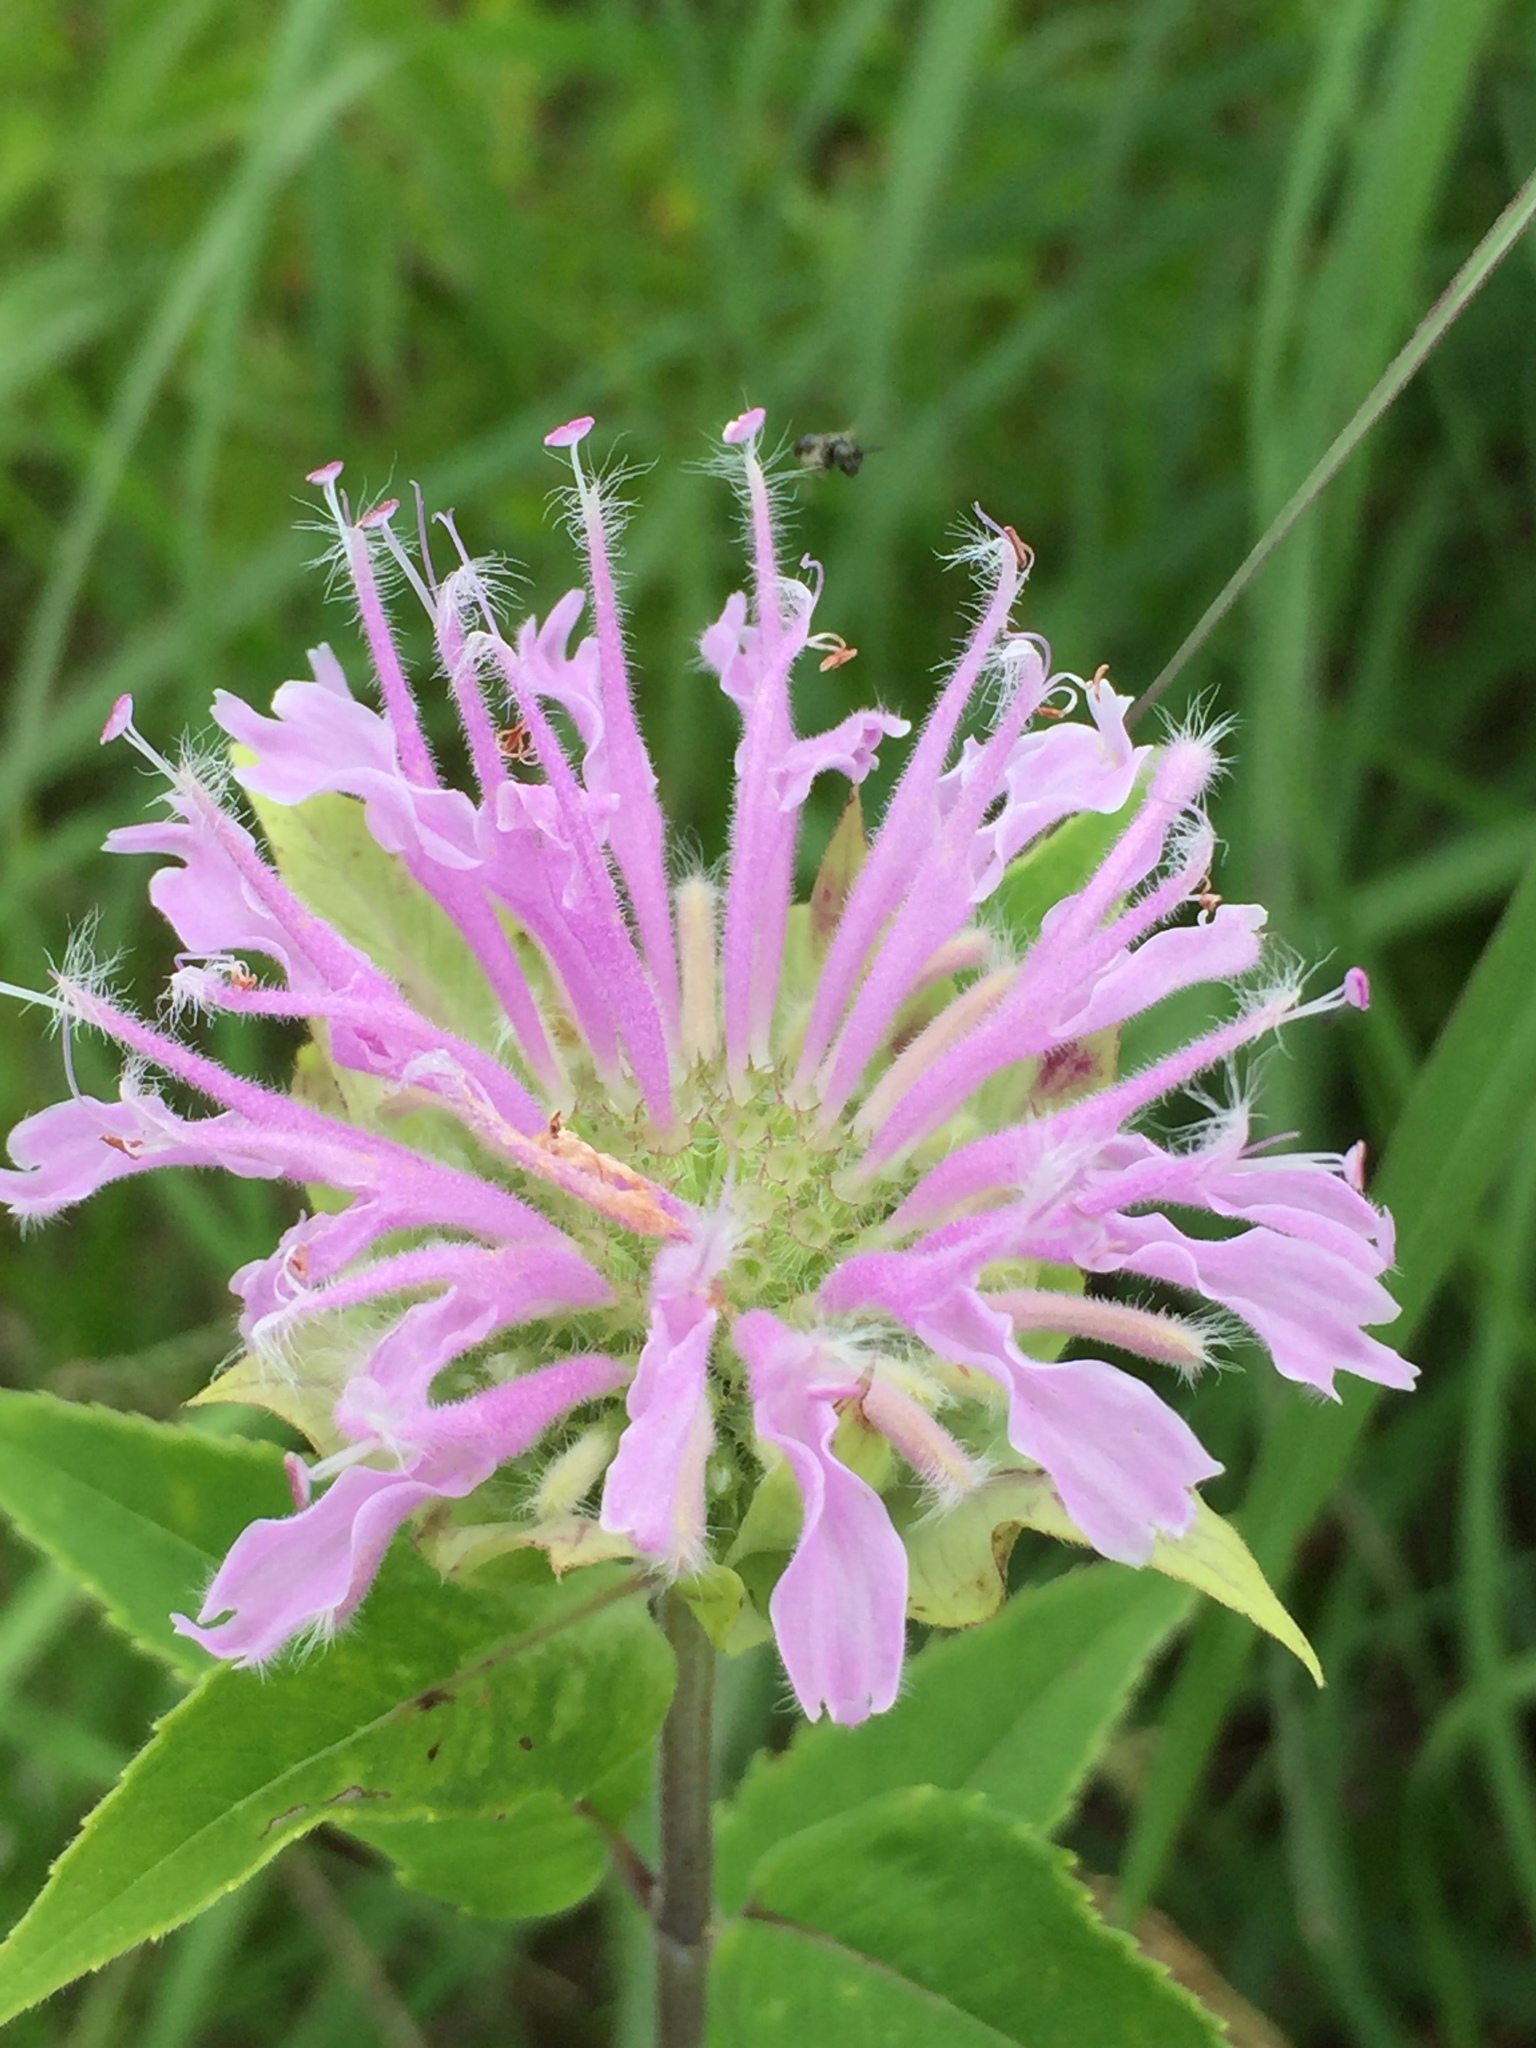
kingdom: Plantae
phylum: Tracheophyta
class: Magnoliopsida
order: Lamiales
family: Lamiaceae
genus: Monarda
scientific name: Monarda fistulosa
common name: Purple beebalm
